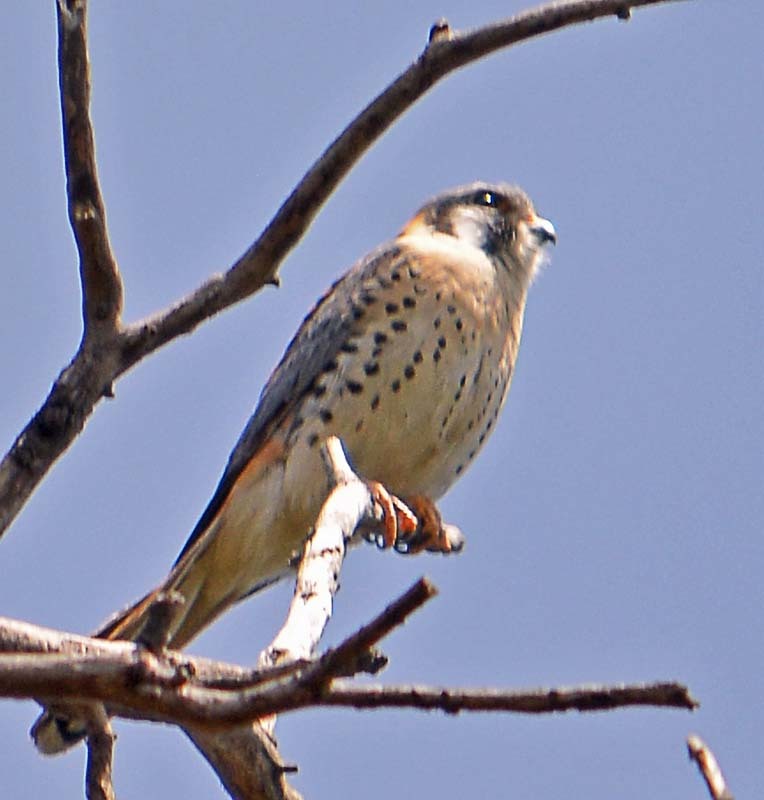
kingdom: Animalia
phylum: Chordata
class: Aves
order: Falconiformes
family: Falconidae
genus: Falco
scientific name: Falco sparverius
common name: American kestrel
